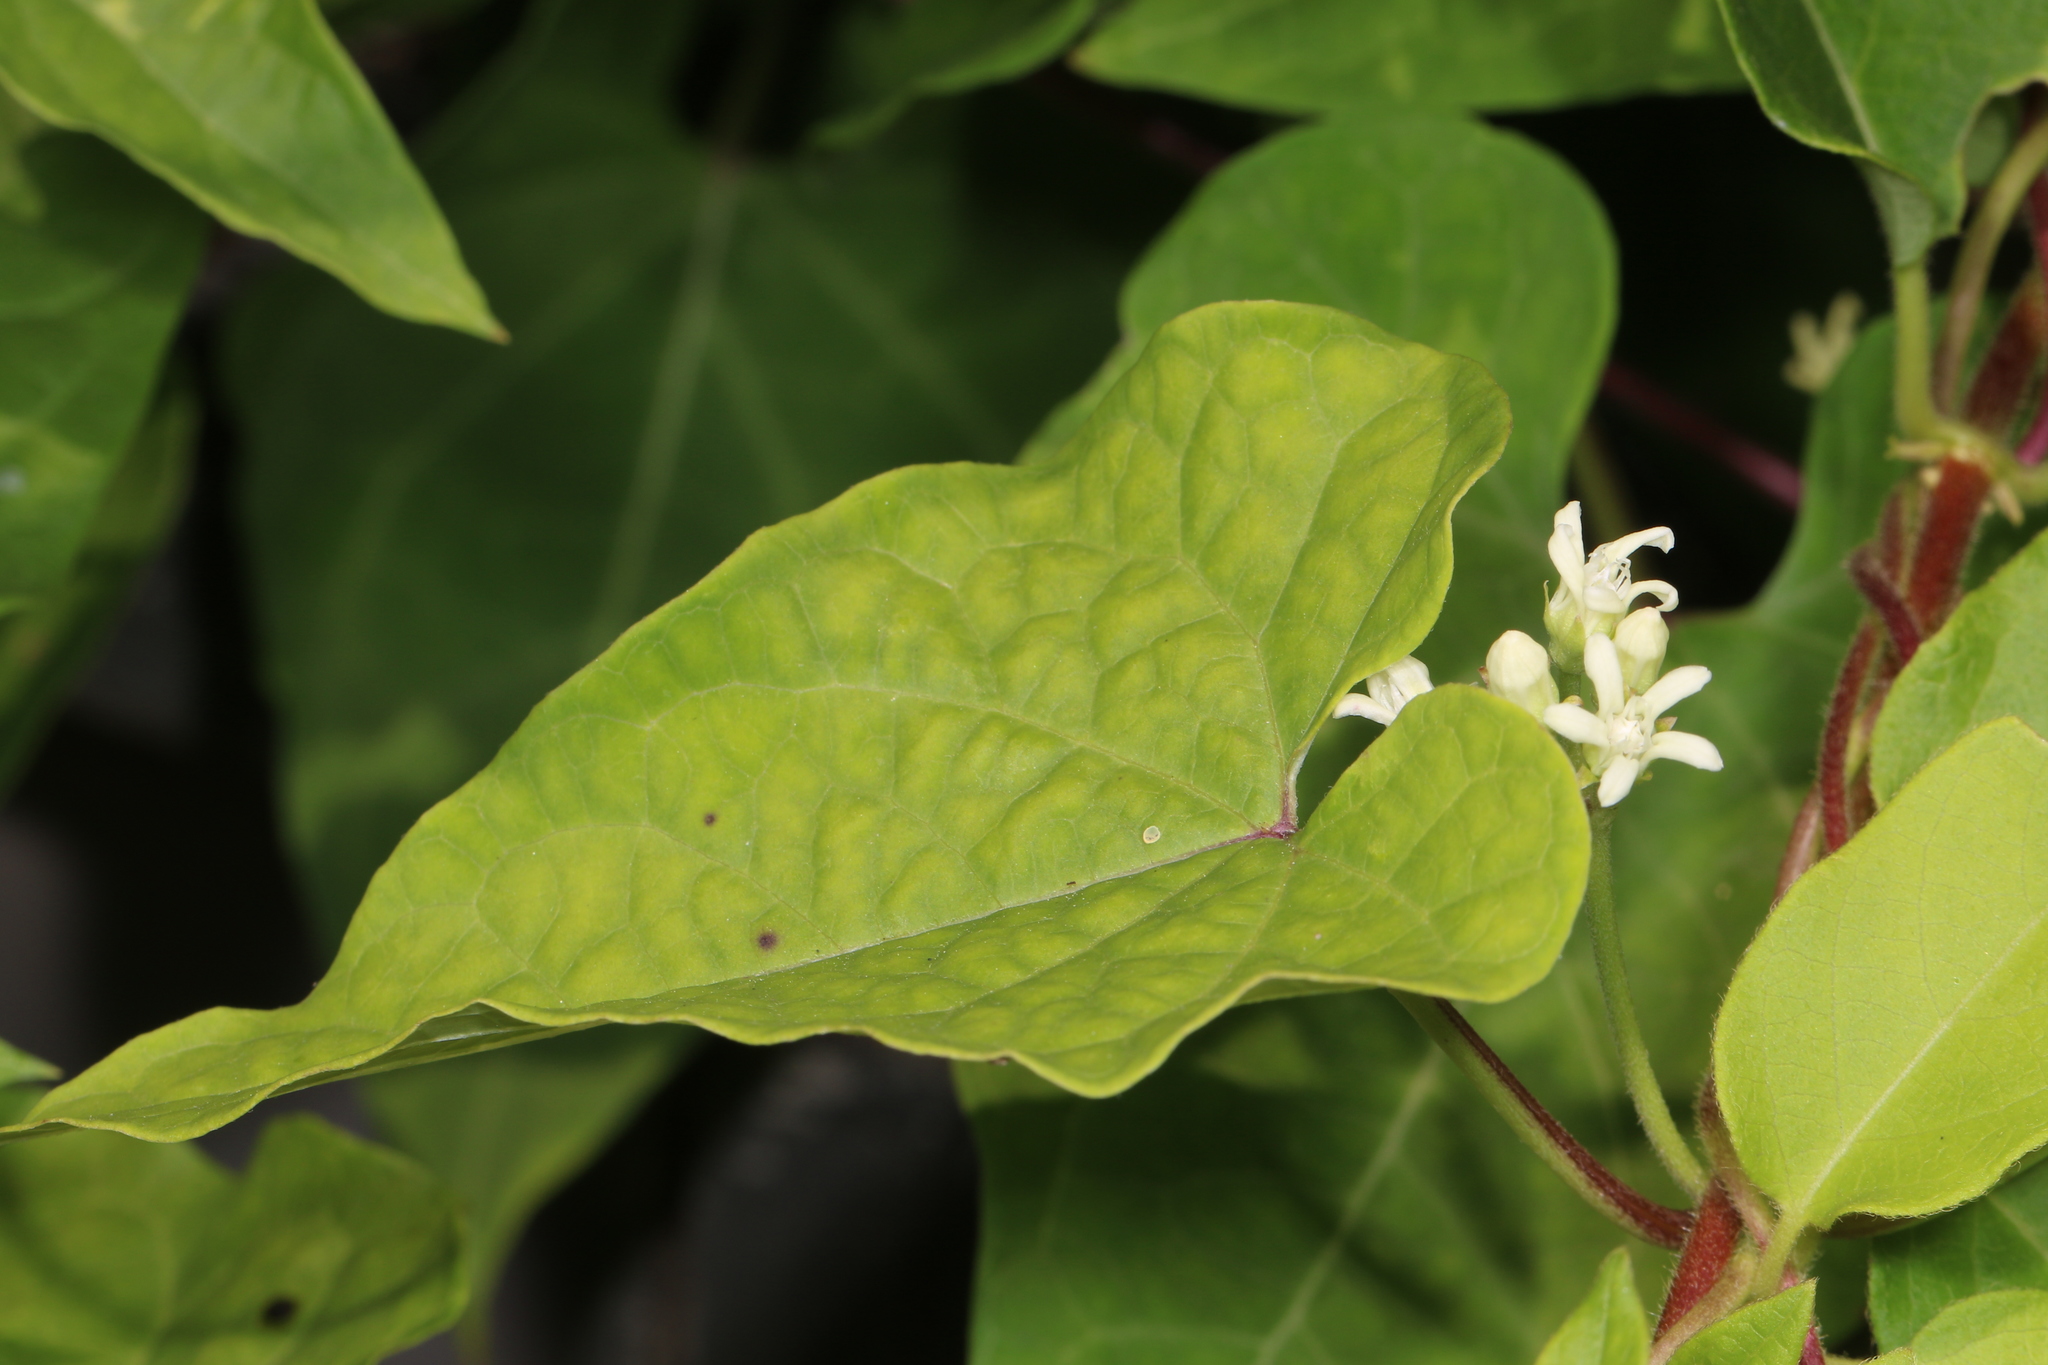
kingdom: Plantae
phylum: Tracheophyta
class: Magnoliopsida
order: Gentianales
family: Apocynaceae
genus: Cynanchum
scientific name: Cynanchum laeve
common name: Sandvine
